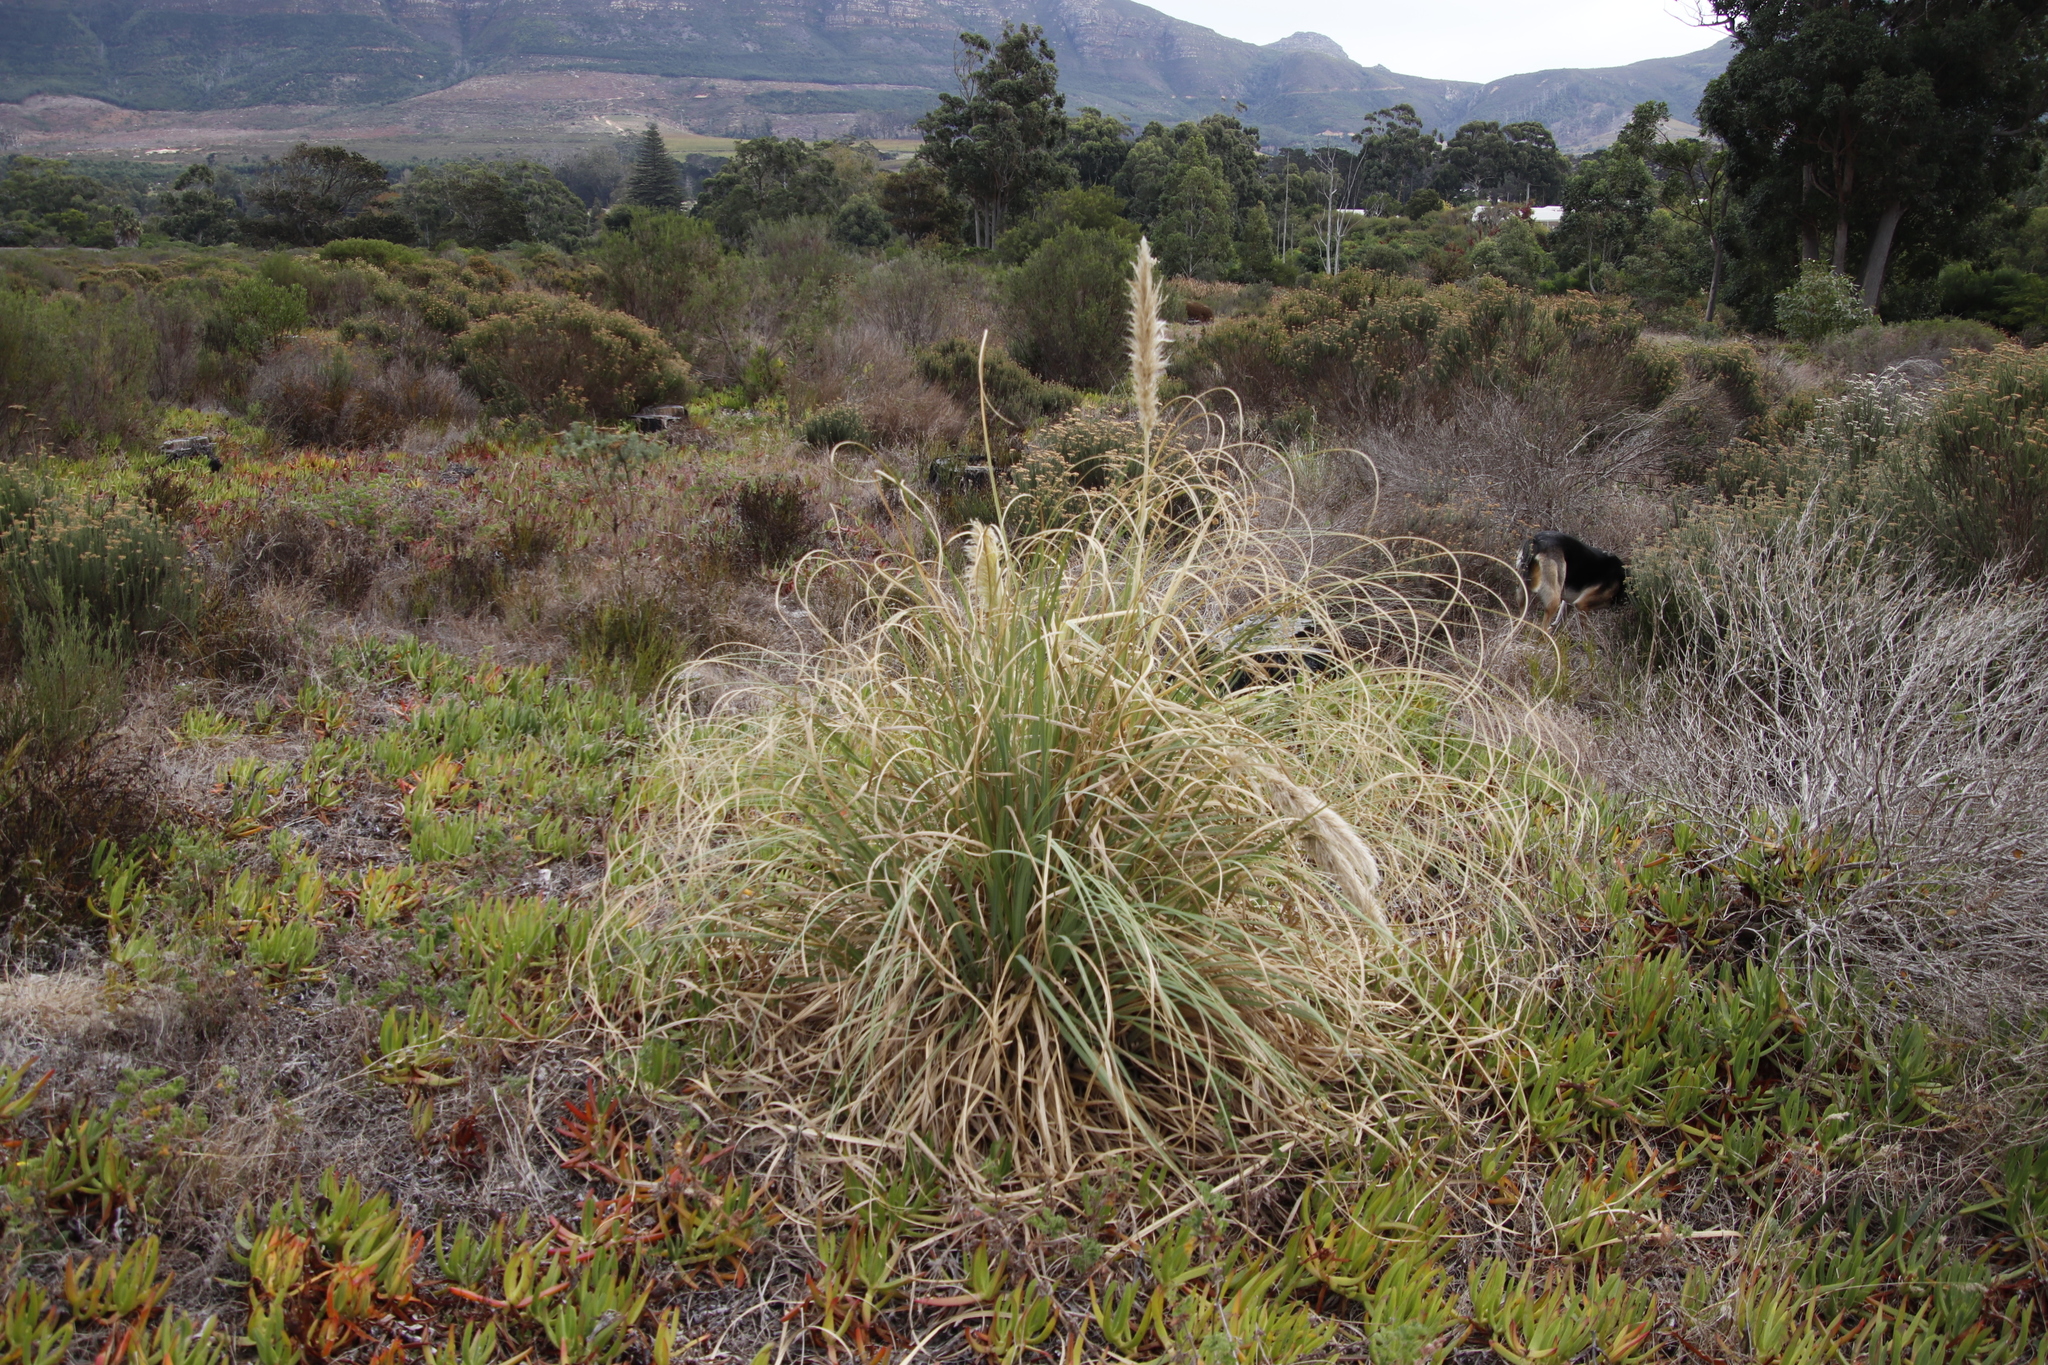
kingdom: Plantae
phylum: Tracheophyta
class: Liliopsida
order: Poales
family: Poaceae
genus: Cortaderia
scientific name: Cortaderia selloana
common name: Uruguayan pampas grass
